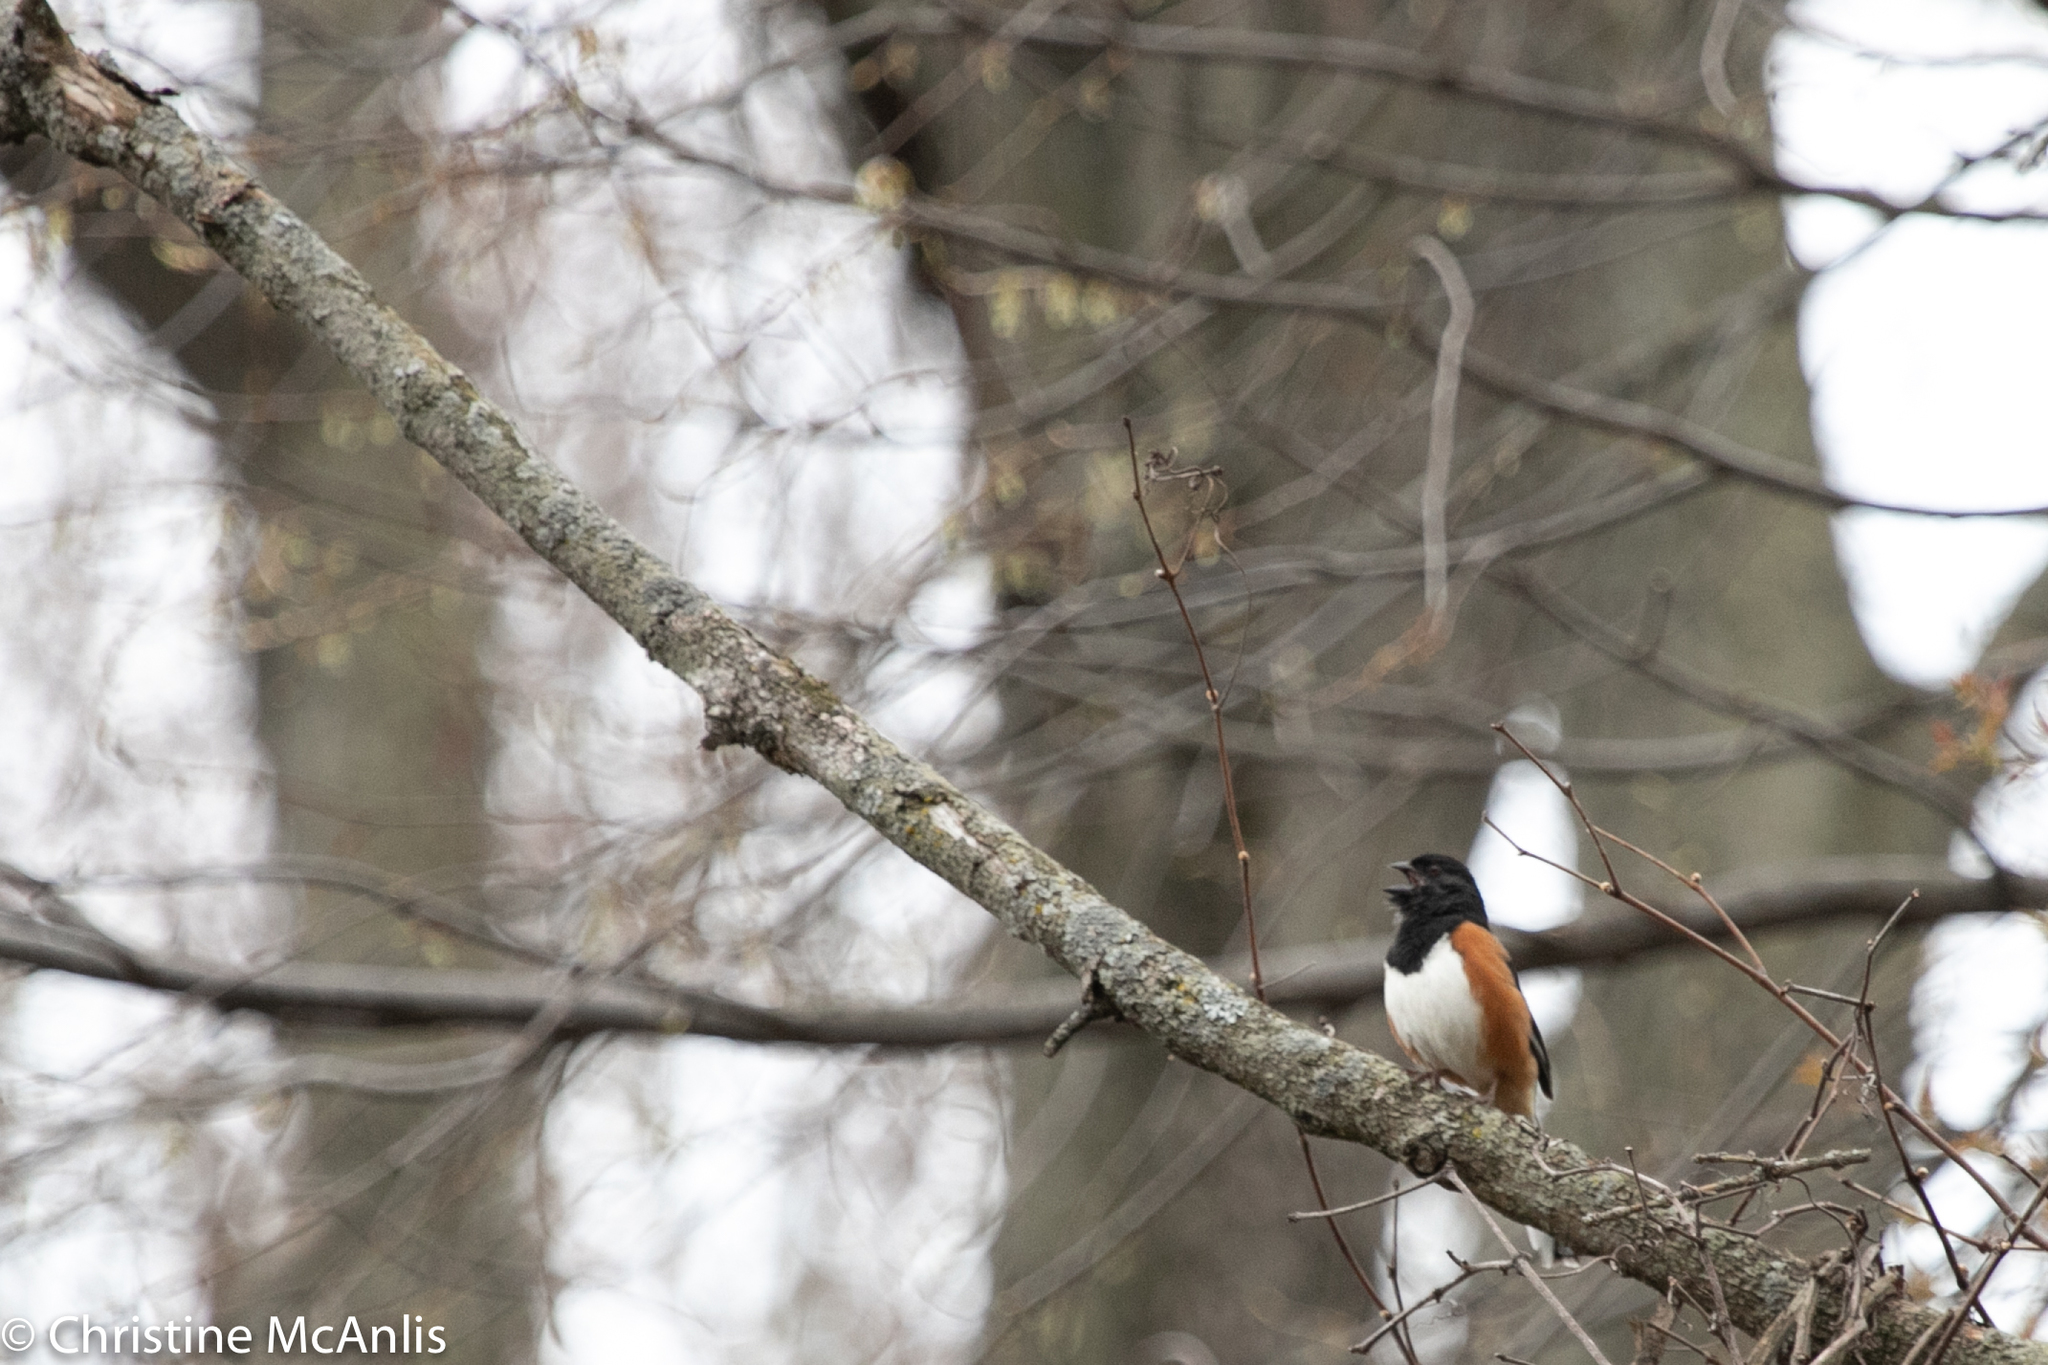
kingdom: Animalia
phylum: Chordata
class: Aves
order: Passeriformes
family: Passerellidae
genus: Pipilo
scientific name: Pipilo erythrophthalmus
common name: Eastern towhee
